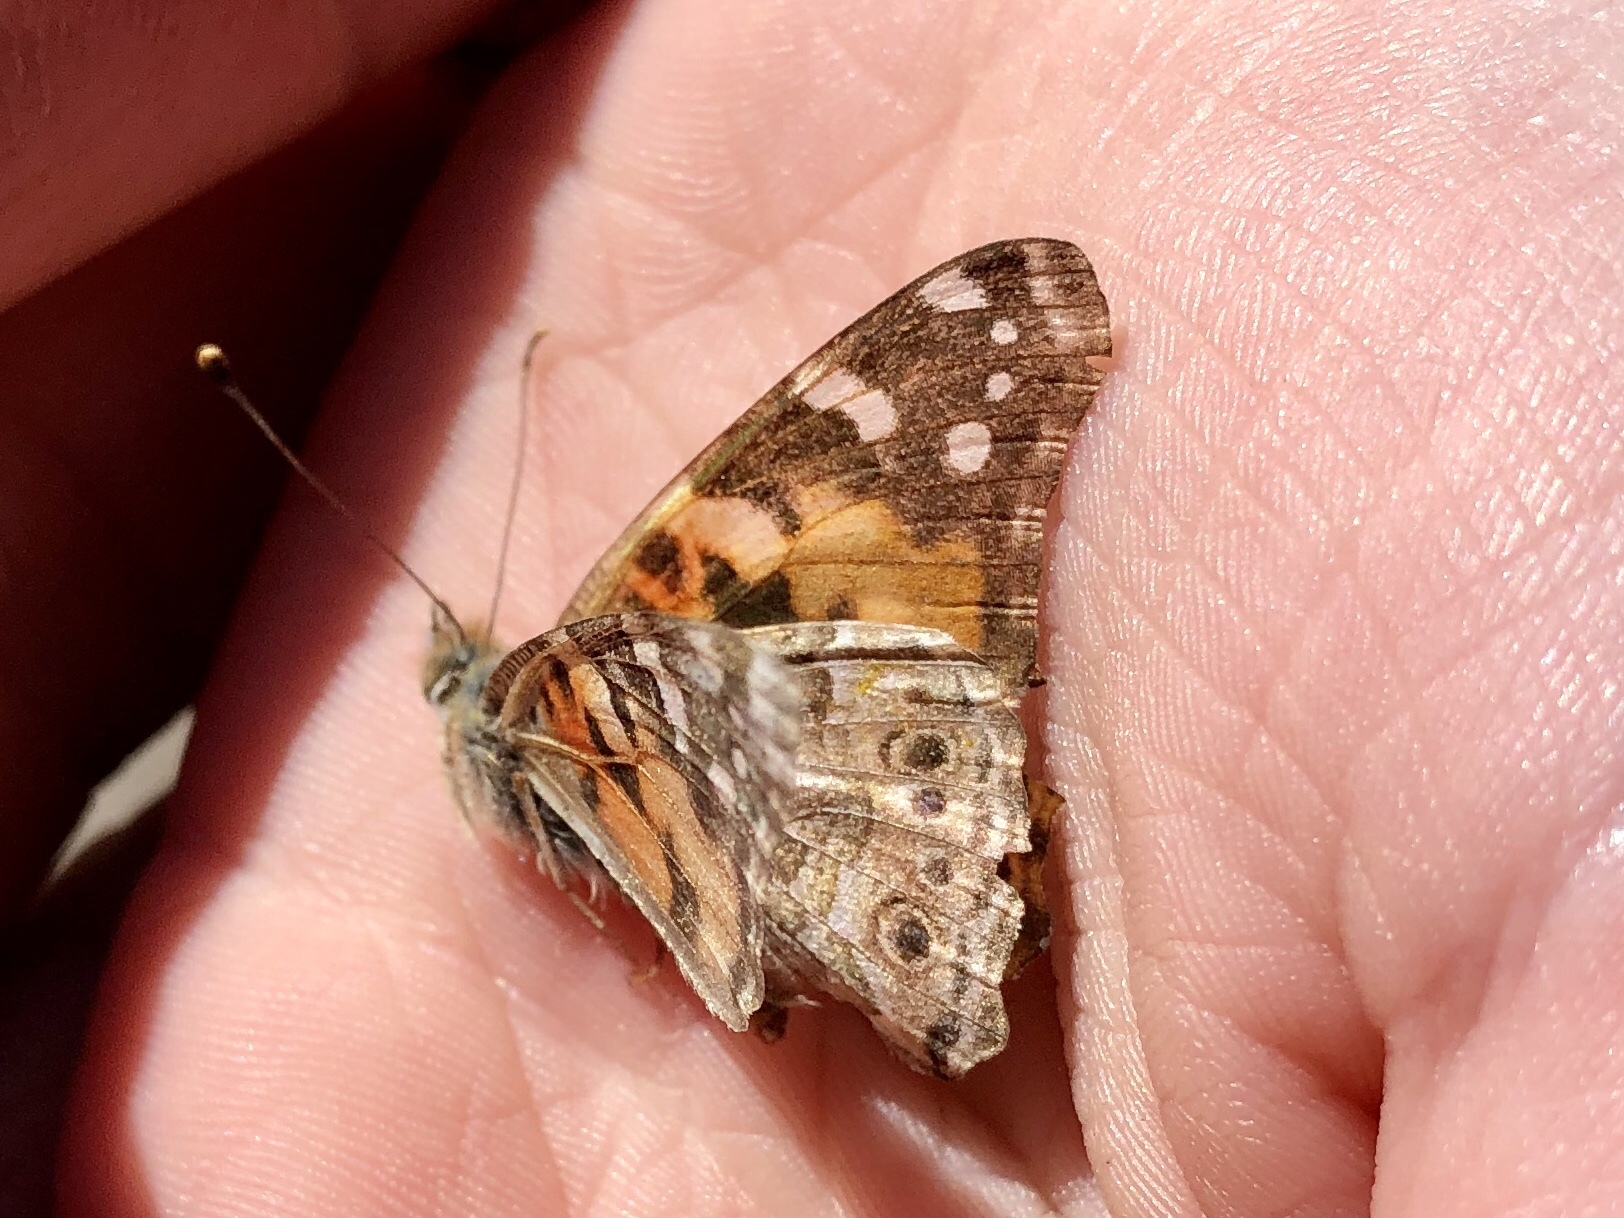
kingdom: Animalia
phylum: Arthropoda
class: Insecta
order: Lepidoptera
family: Nymphalidae
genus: Vanessa
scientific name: Vanessa cardui
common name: Painted lady
